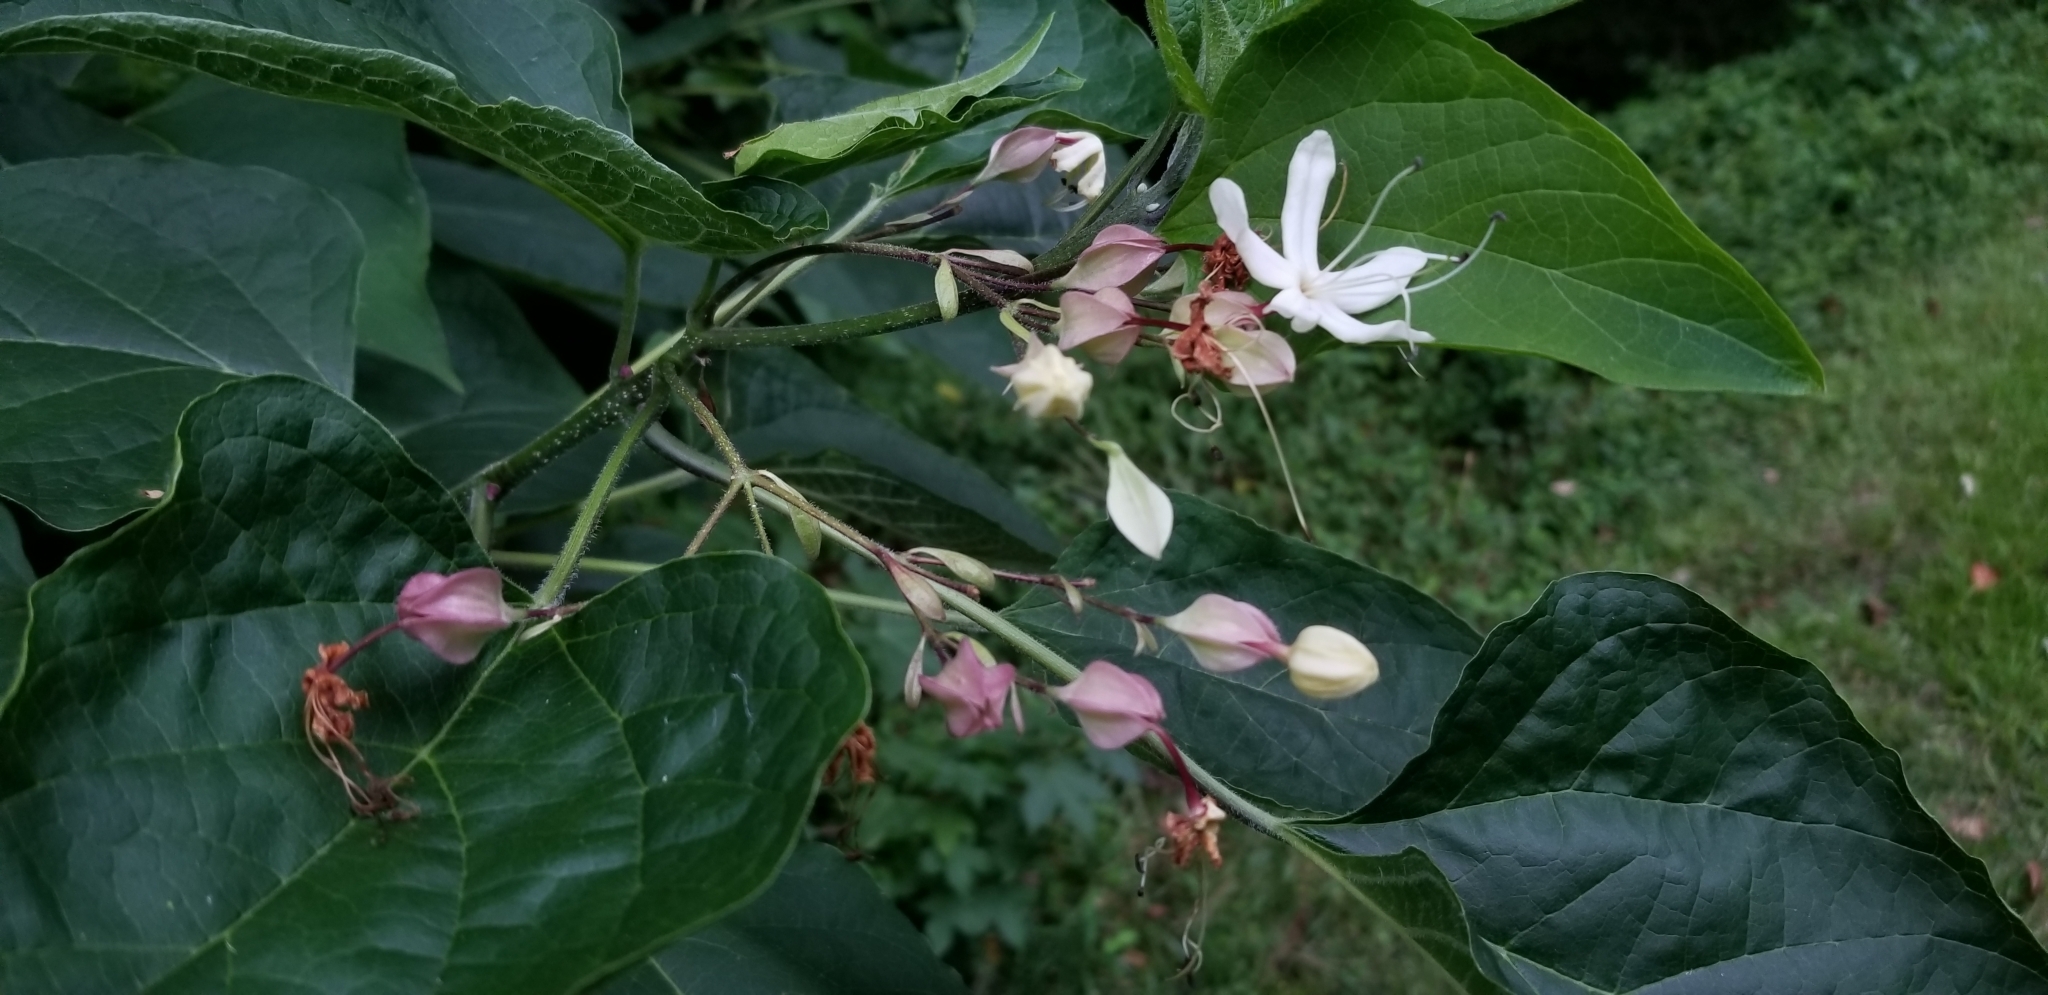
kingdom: Plantae
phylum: Tracheophyta
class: Magnoliopsida
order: Lamiales
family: Lamiaceae
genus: Clerodendrum
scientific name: Clerodendrum trichotomum
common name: Harlequin glorybower
